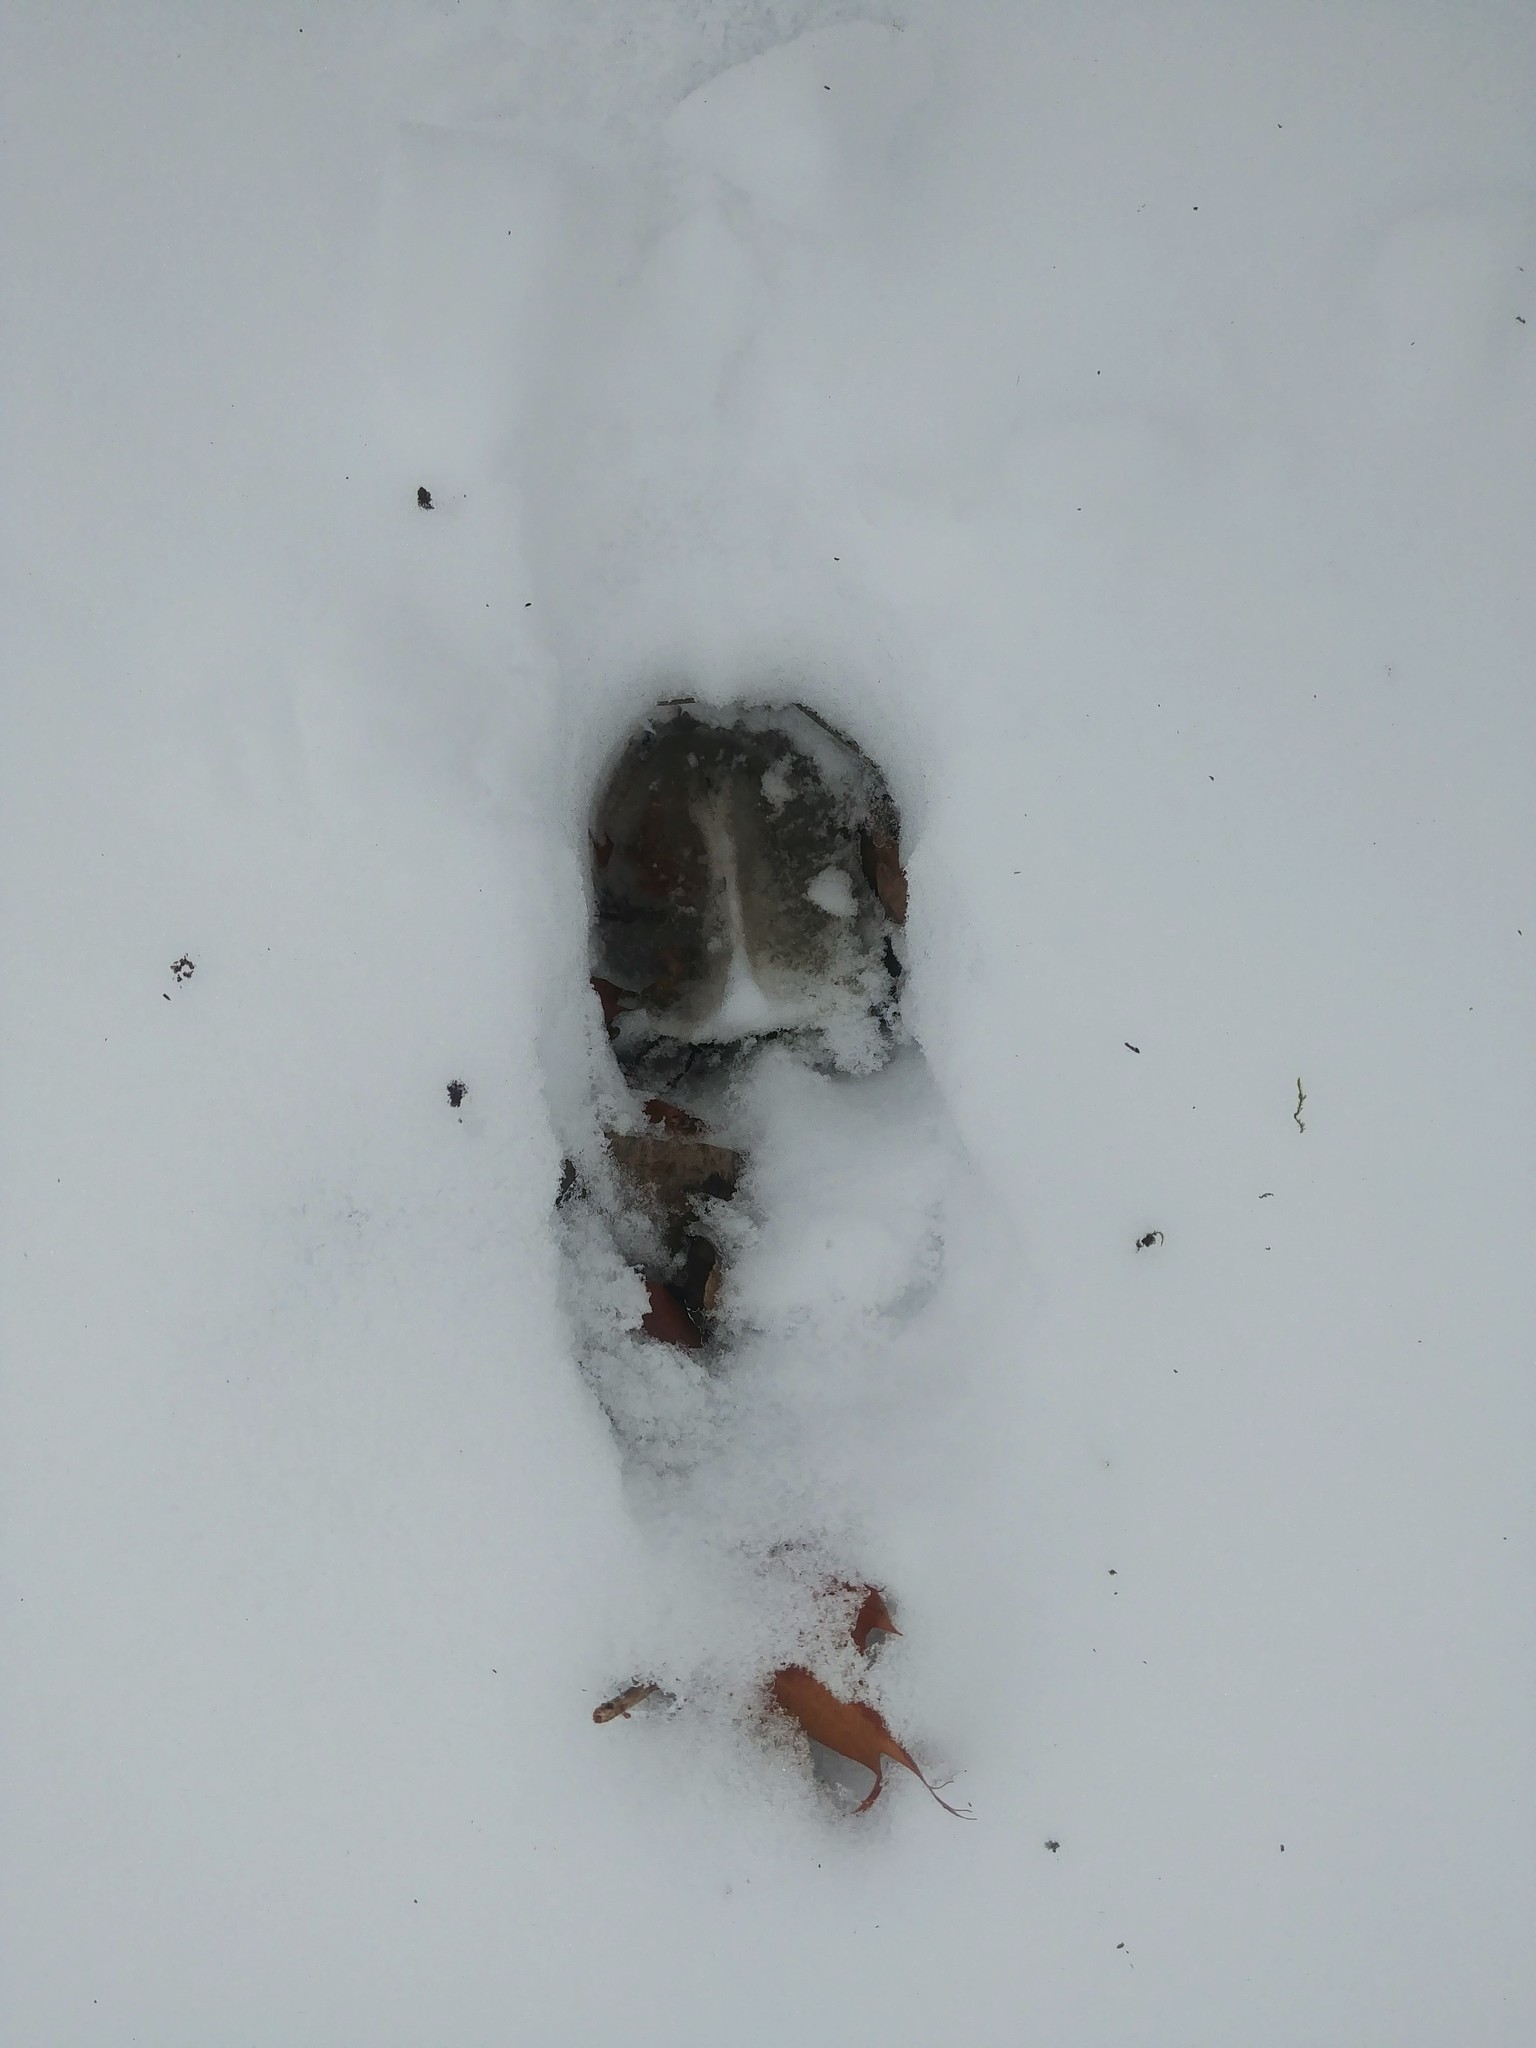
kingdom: Animalia
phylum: Chordata
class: Mammalia
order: Artiodactyla
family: Cervidae
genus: Odocoileus
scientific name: Odocoileus virginianus
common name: White-tailed deer
